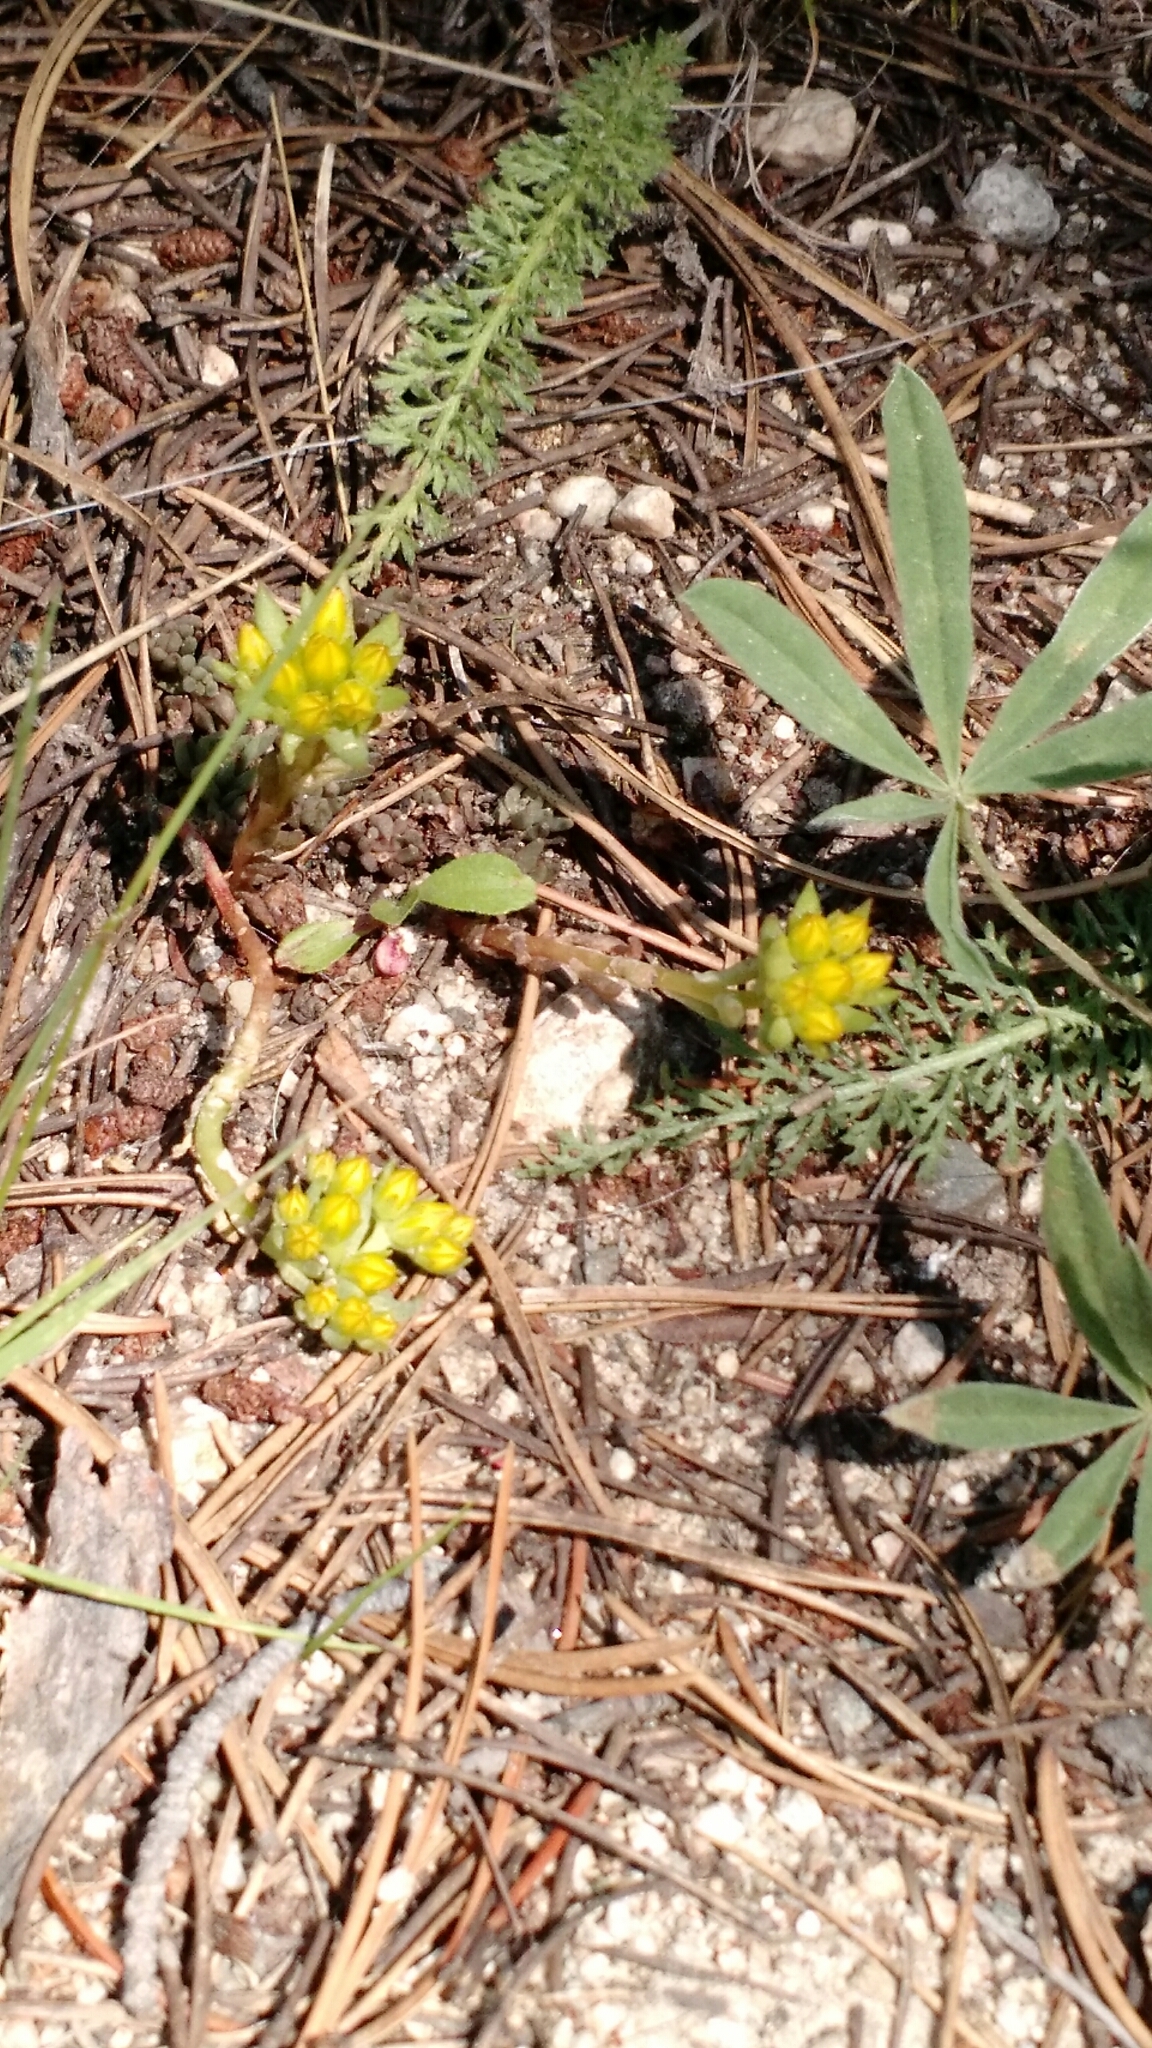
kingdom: Plantae
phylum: Tracheophyta
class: Magnoliopsida
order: Saxifragales
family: Crassulaceae
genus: Sedum
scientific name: Sedum lanceolatum
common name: Common stonecrop
